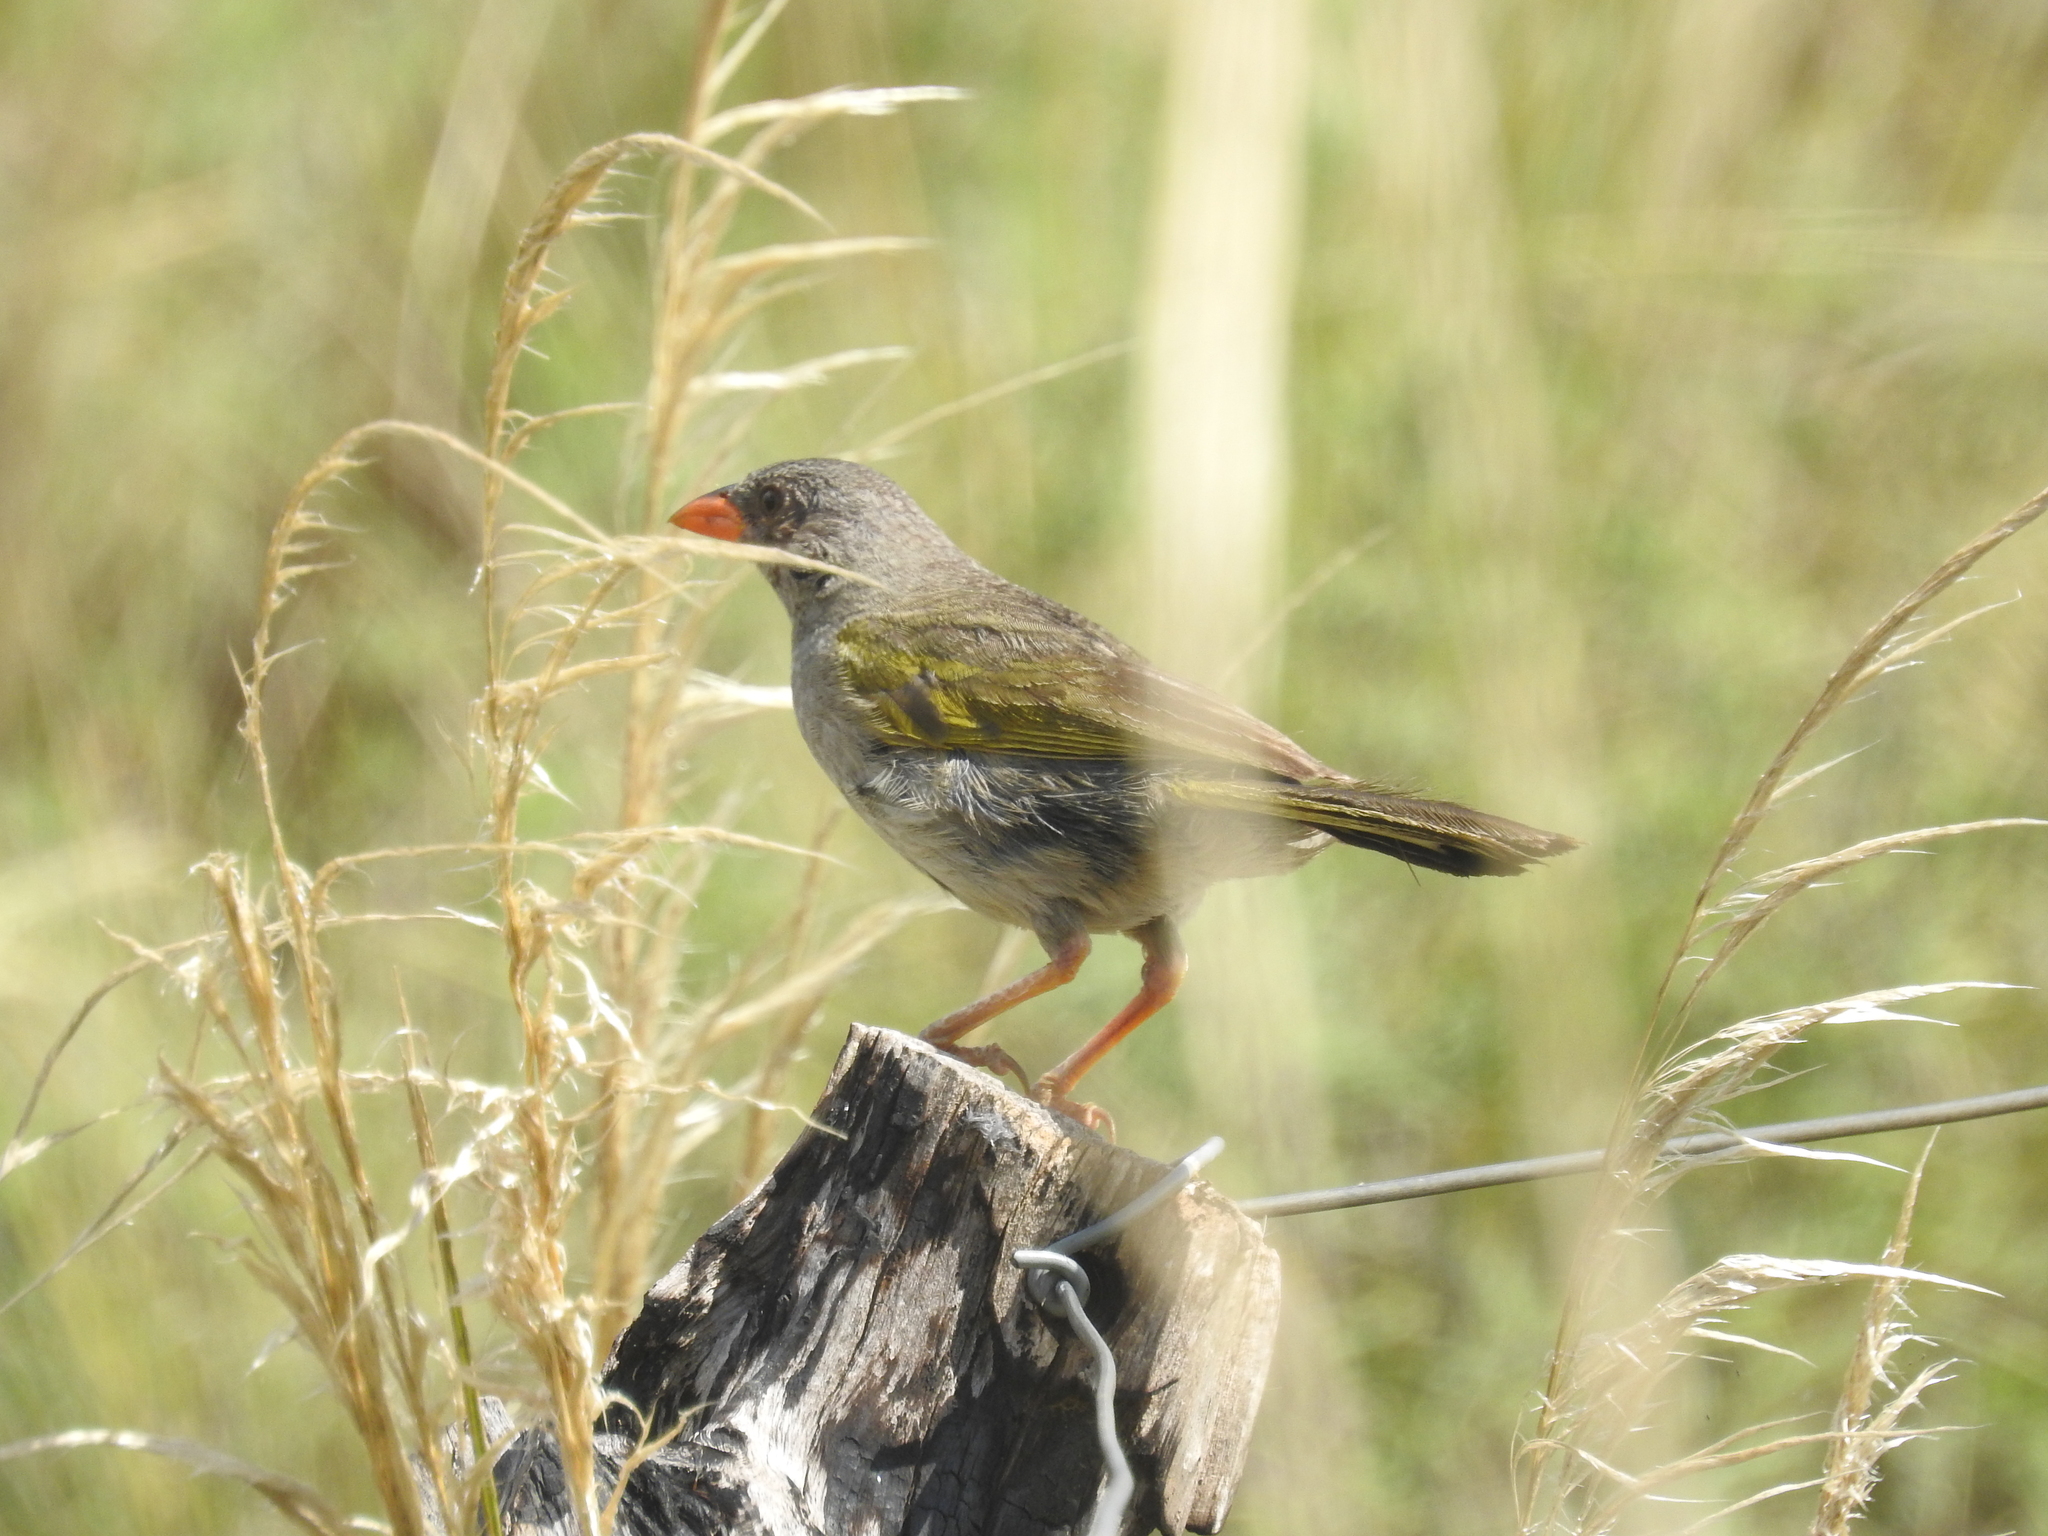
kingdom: Animalia
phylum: Chordata
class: Aves
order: Passeriformes
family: Thraupidae
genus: Embernagra
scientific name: Embernagra platensis
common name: Pampa finch
